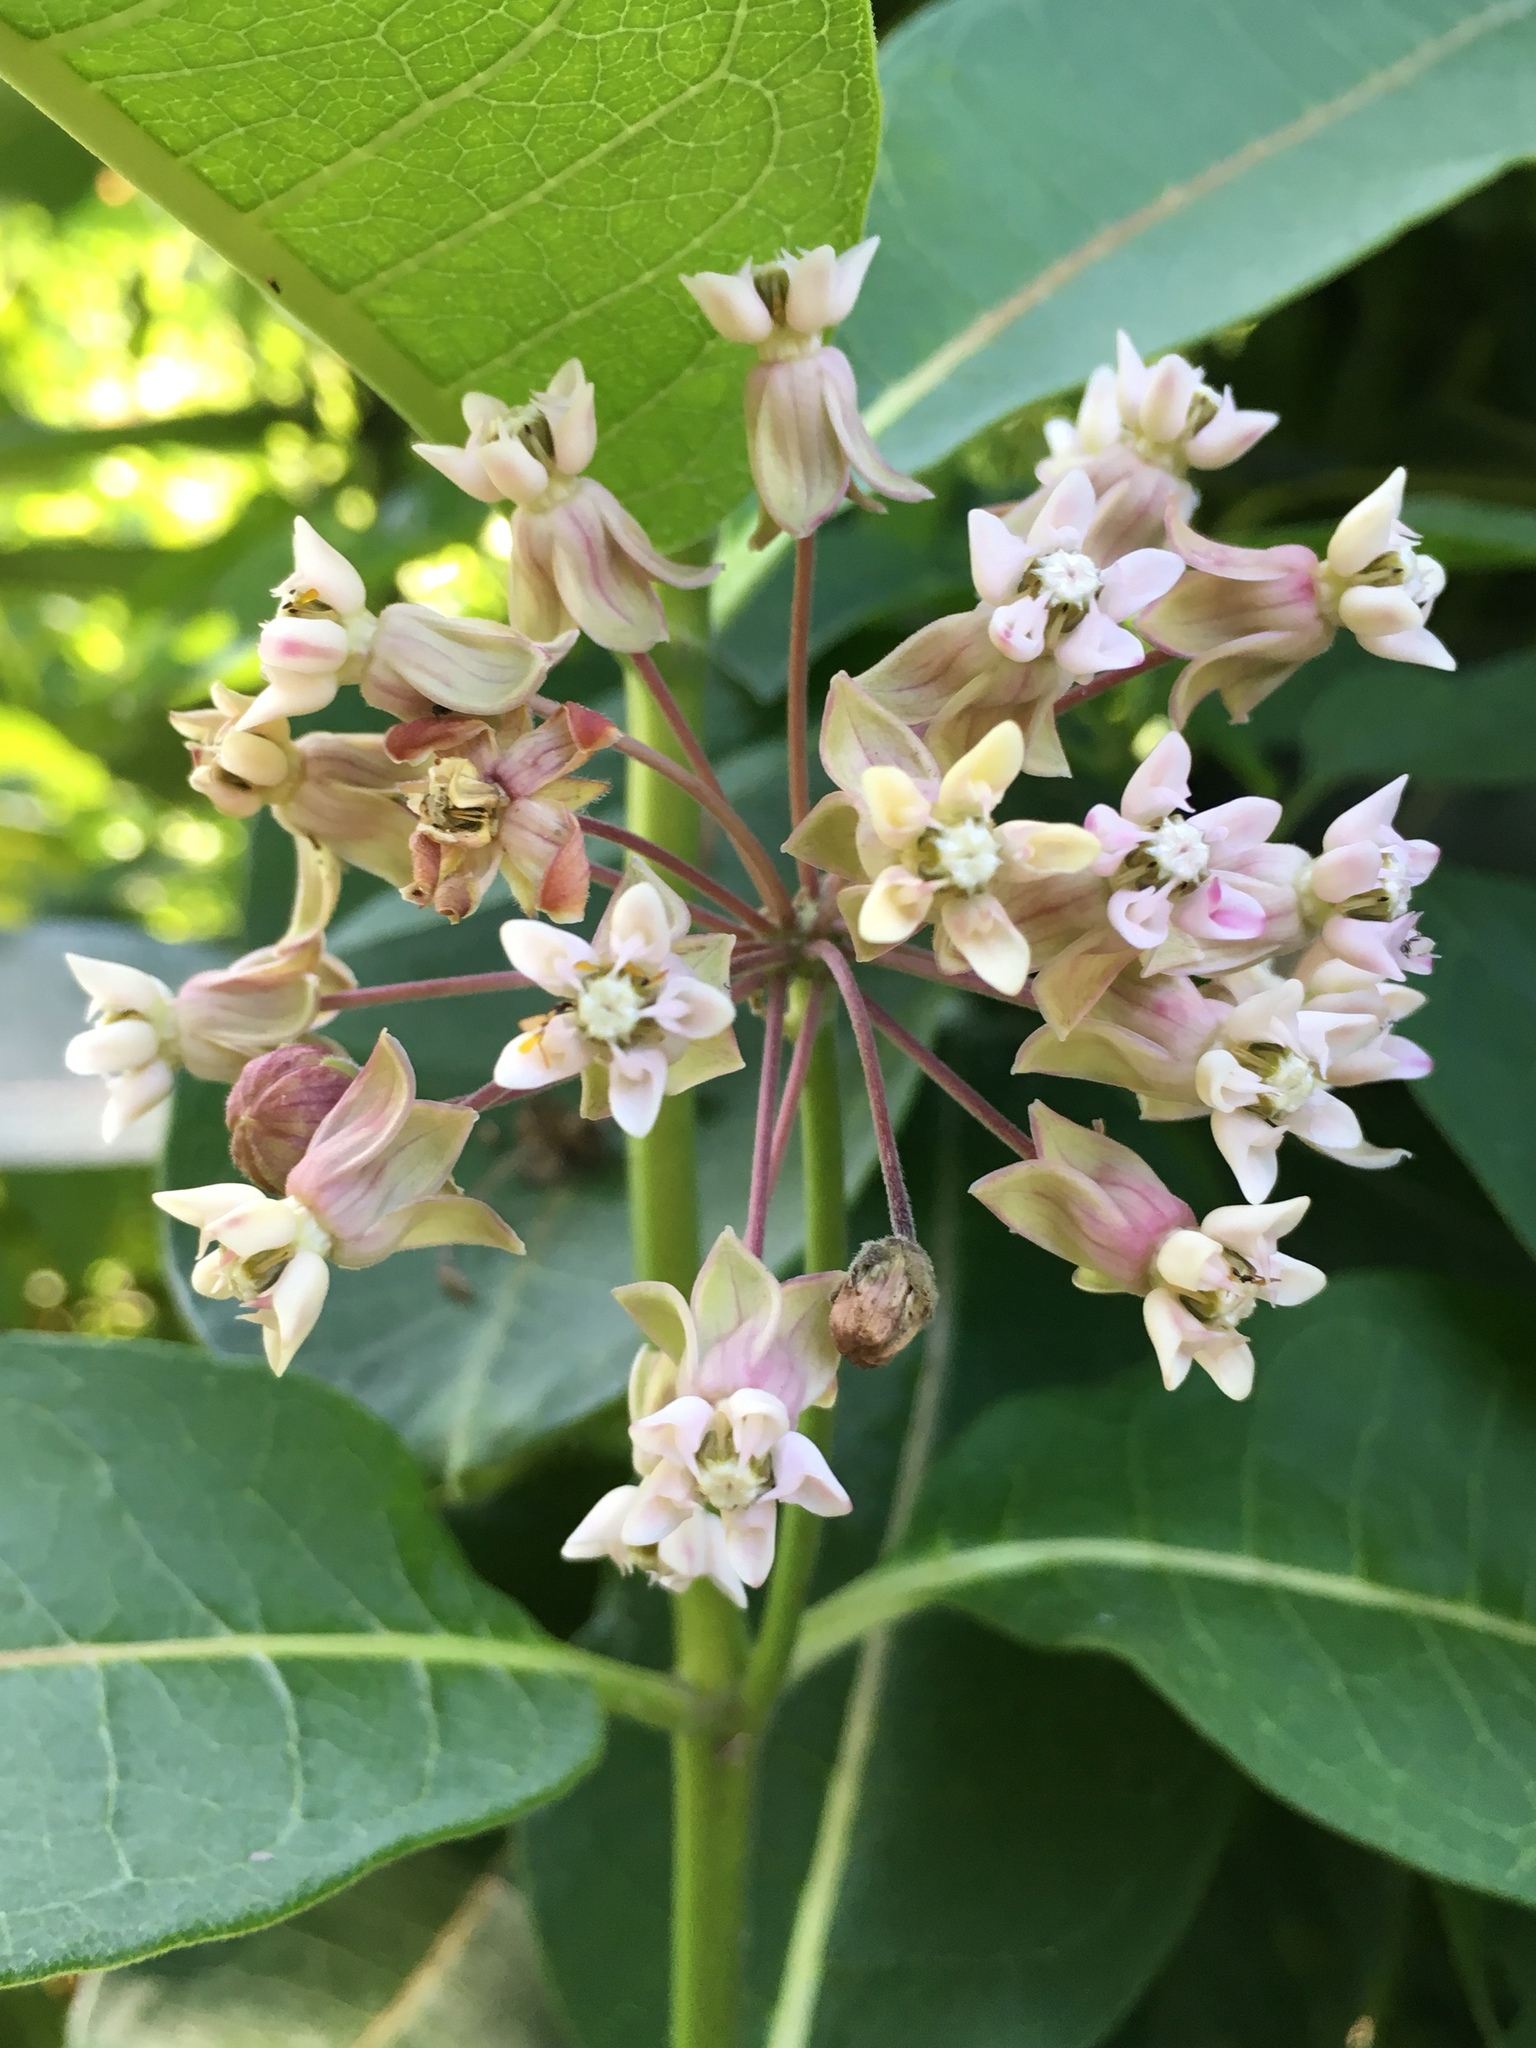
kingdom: Plantae
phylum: Tracheophyta
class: Magnoliopsida
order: Gentianales
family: Apocynaceae
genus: Asclepias
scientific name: Asclepias syriaca
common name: Common milkweed
